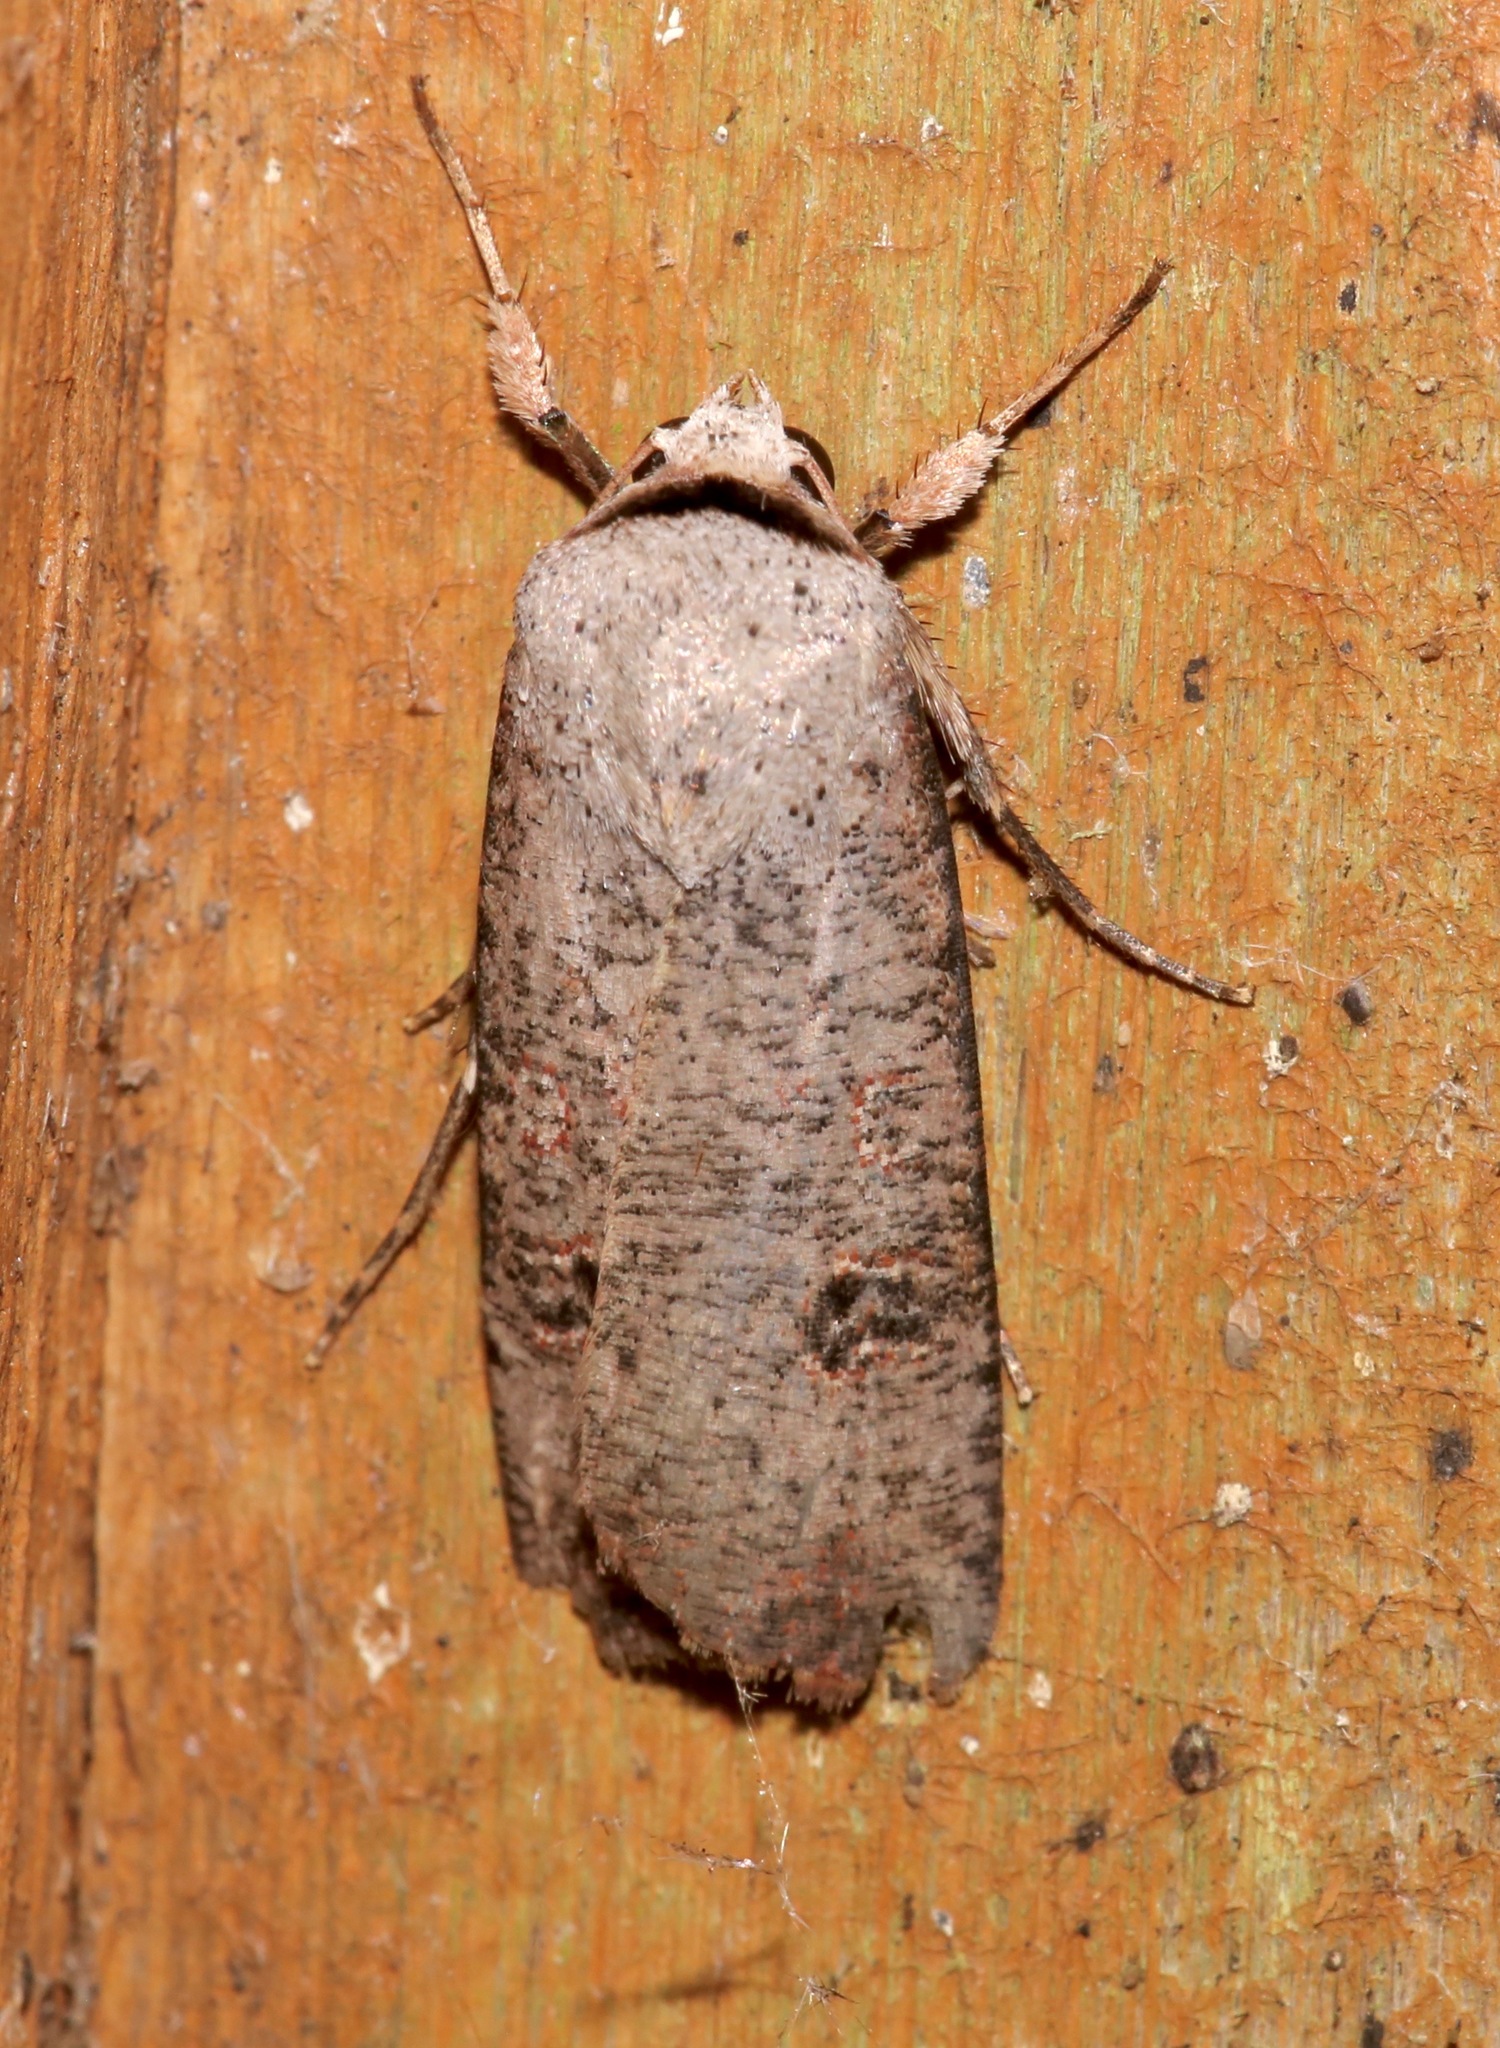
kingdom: Animalia
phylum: Arthropoda
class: Insecta
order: Lepidoptera
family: Noctuidae
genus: Anicla
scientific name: Anicla infecta
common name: Green cutworm
